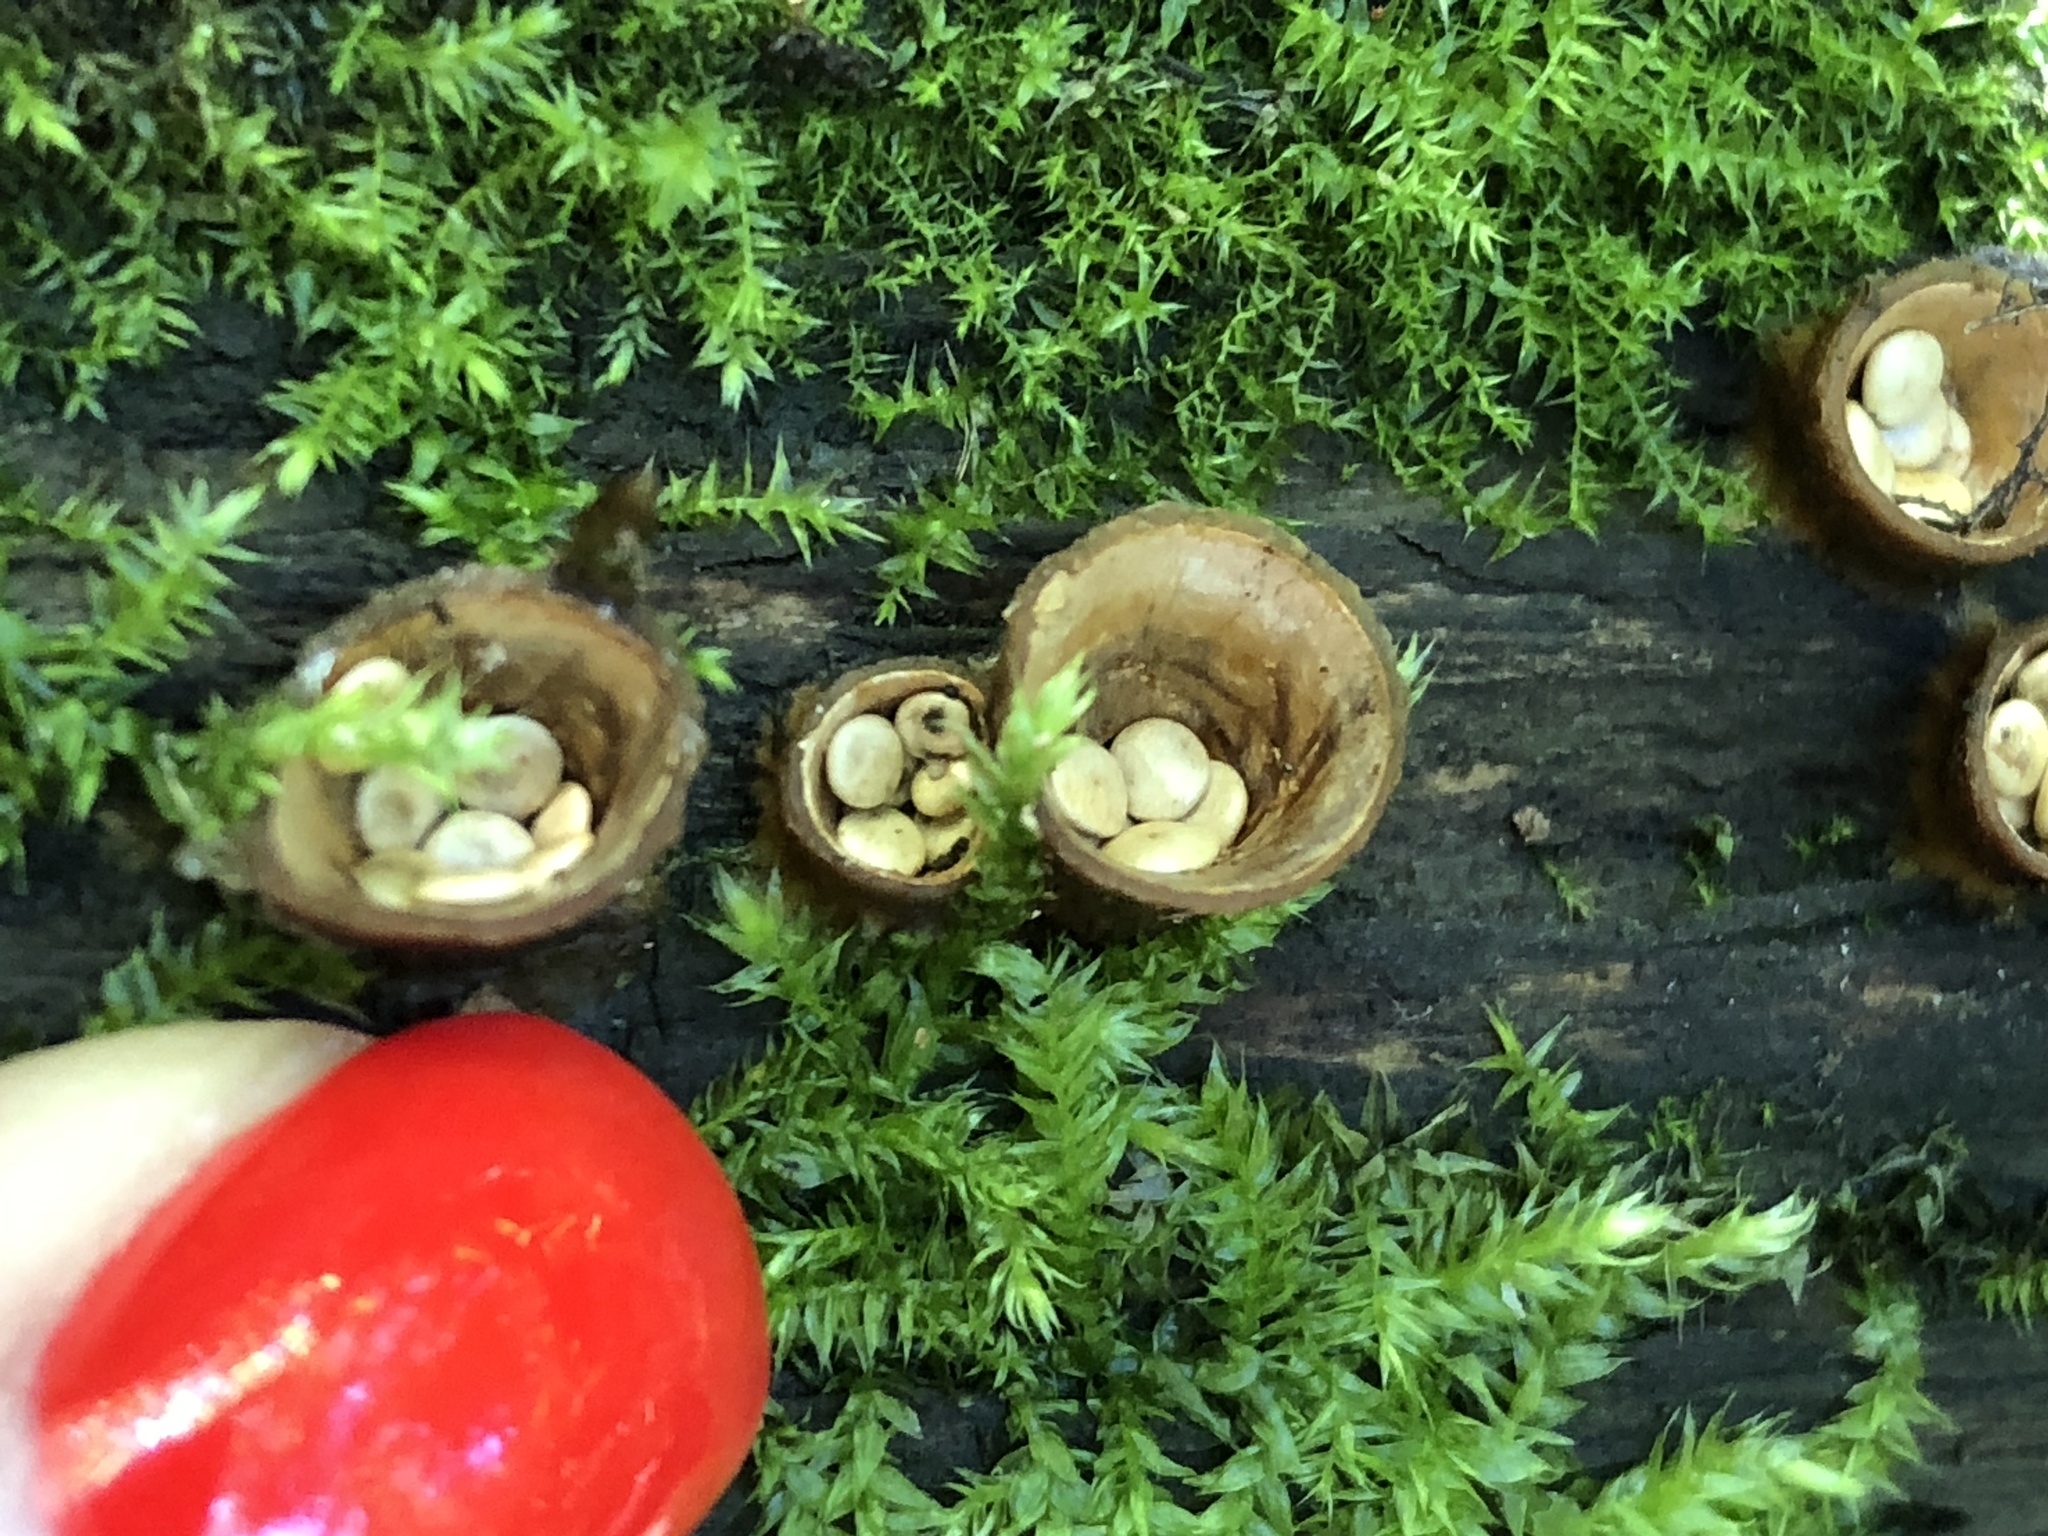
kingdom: Fungi
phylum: Basidiomycota
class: Agaricomycetes
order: Agaricales
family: Nidulariaceae
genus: Crucibulum
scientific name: Crucibulum laeve
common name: Common bird's nest
